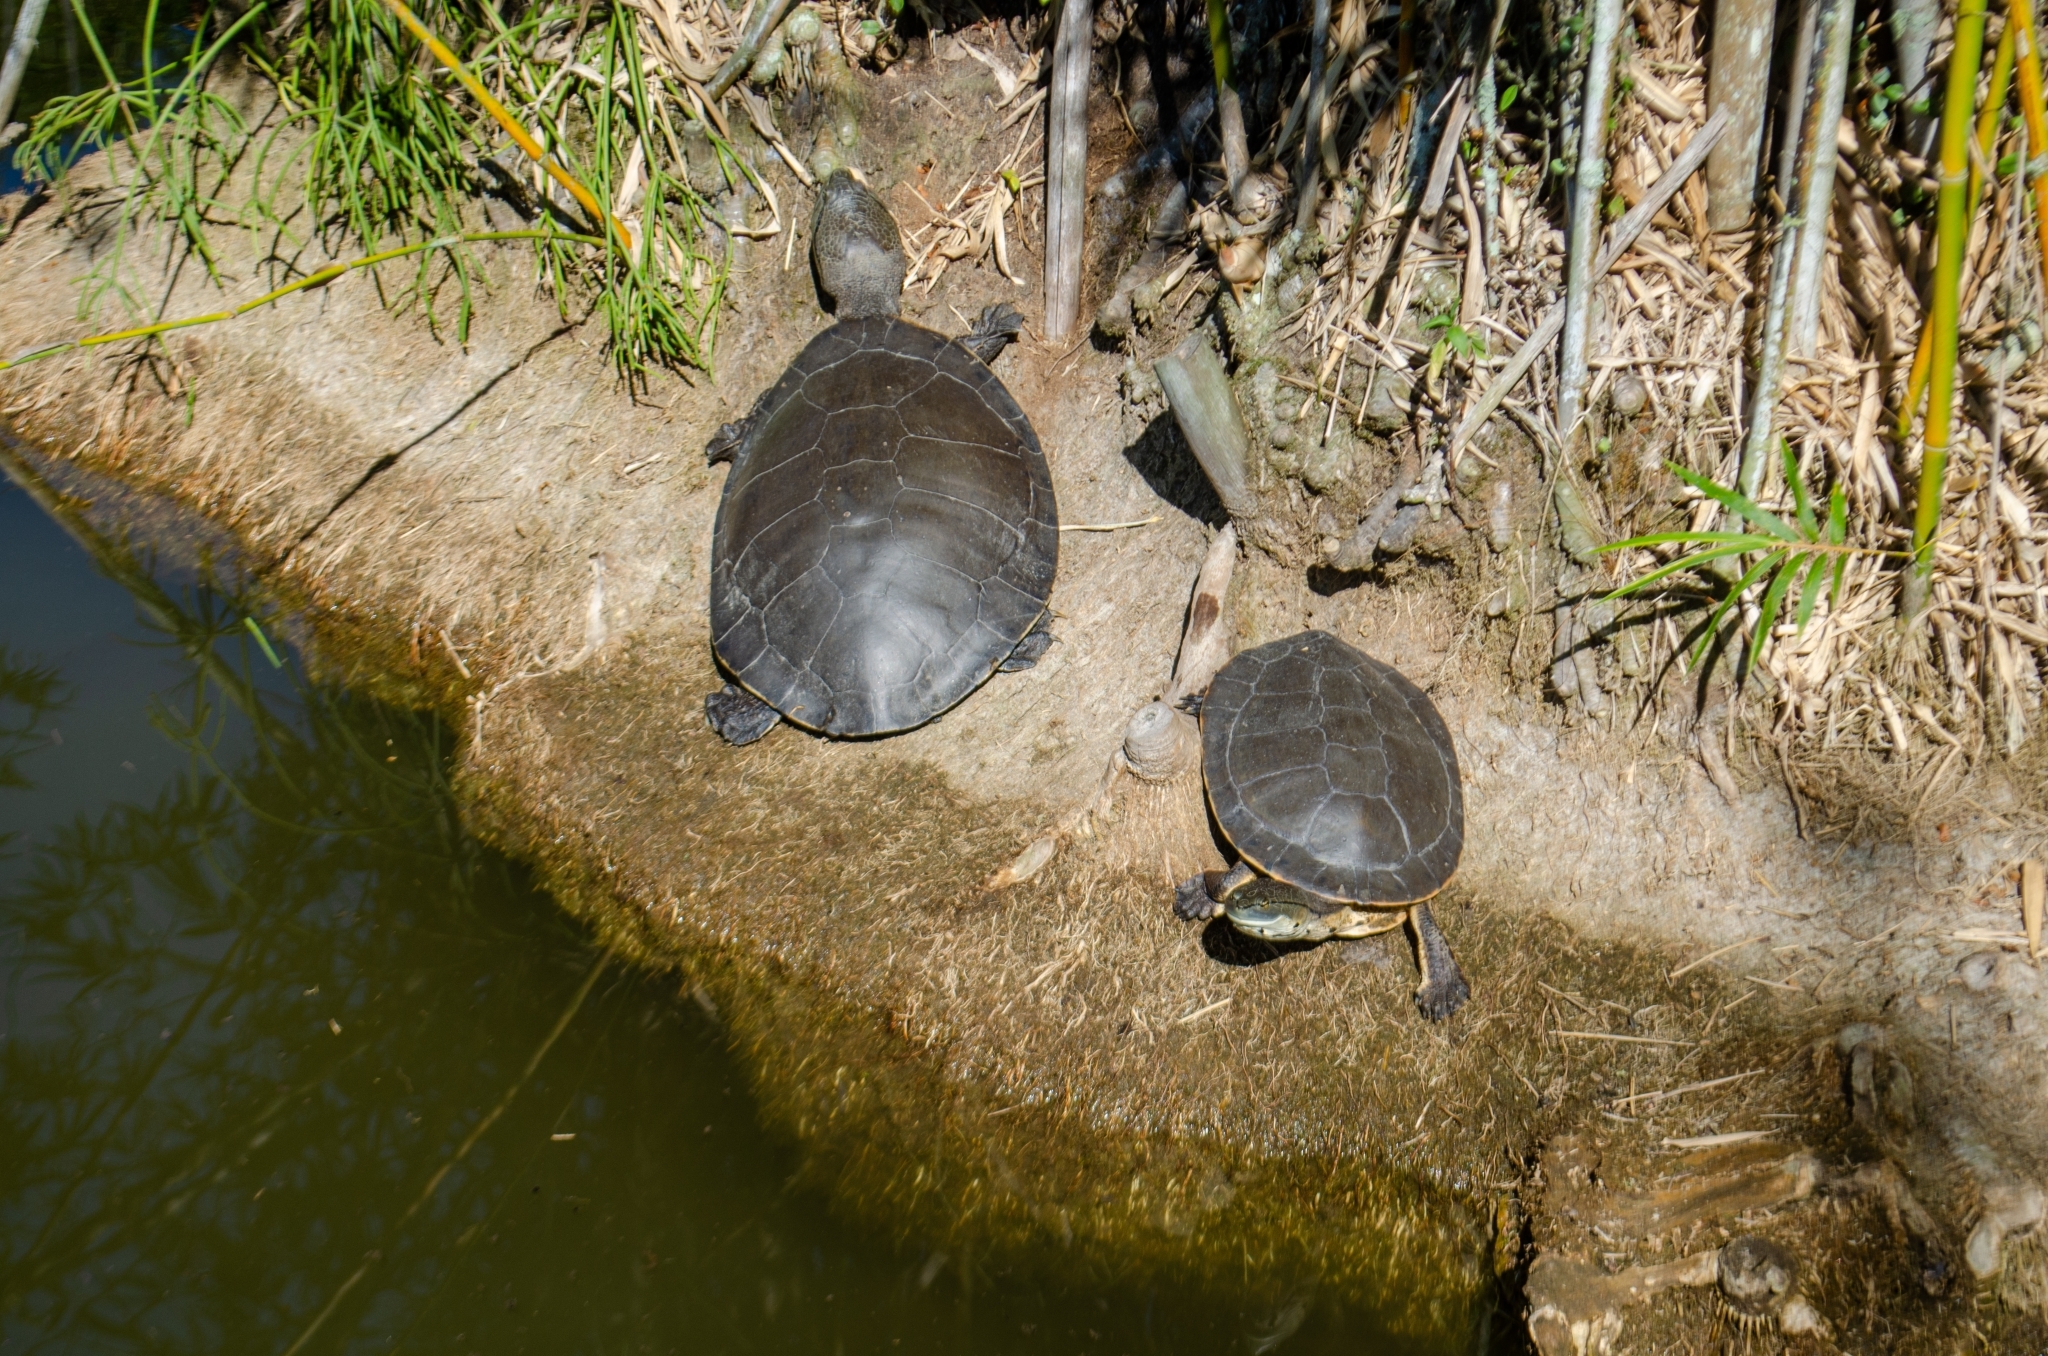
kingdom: Animalia
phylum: Chordata
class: Testudines
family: Chelidae
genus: Phrynops
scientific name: Phrynops hilarii
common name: Side-necked turtle of saint hillaire
